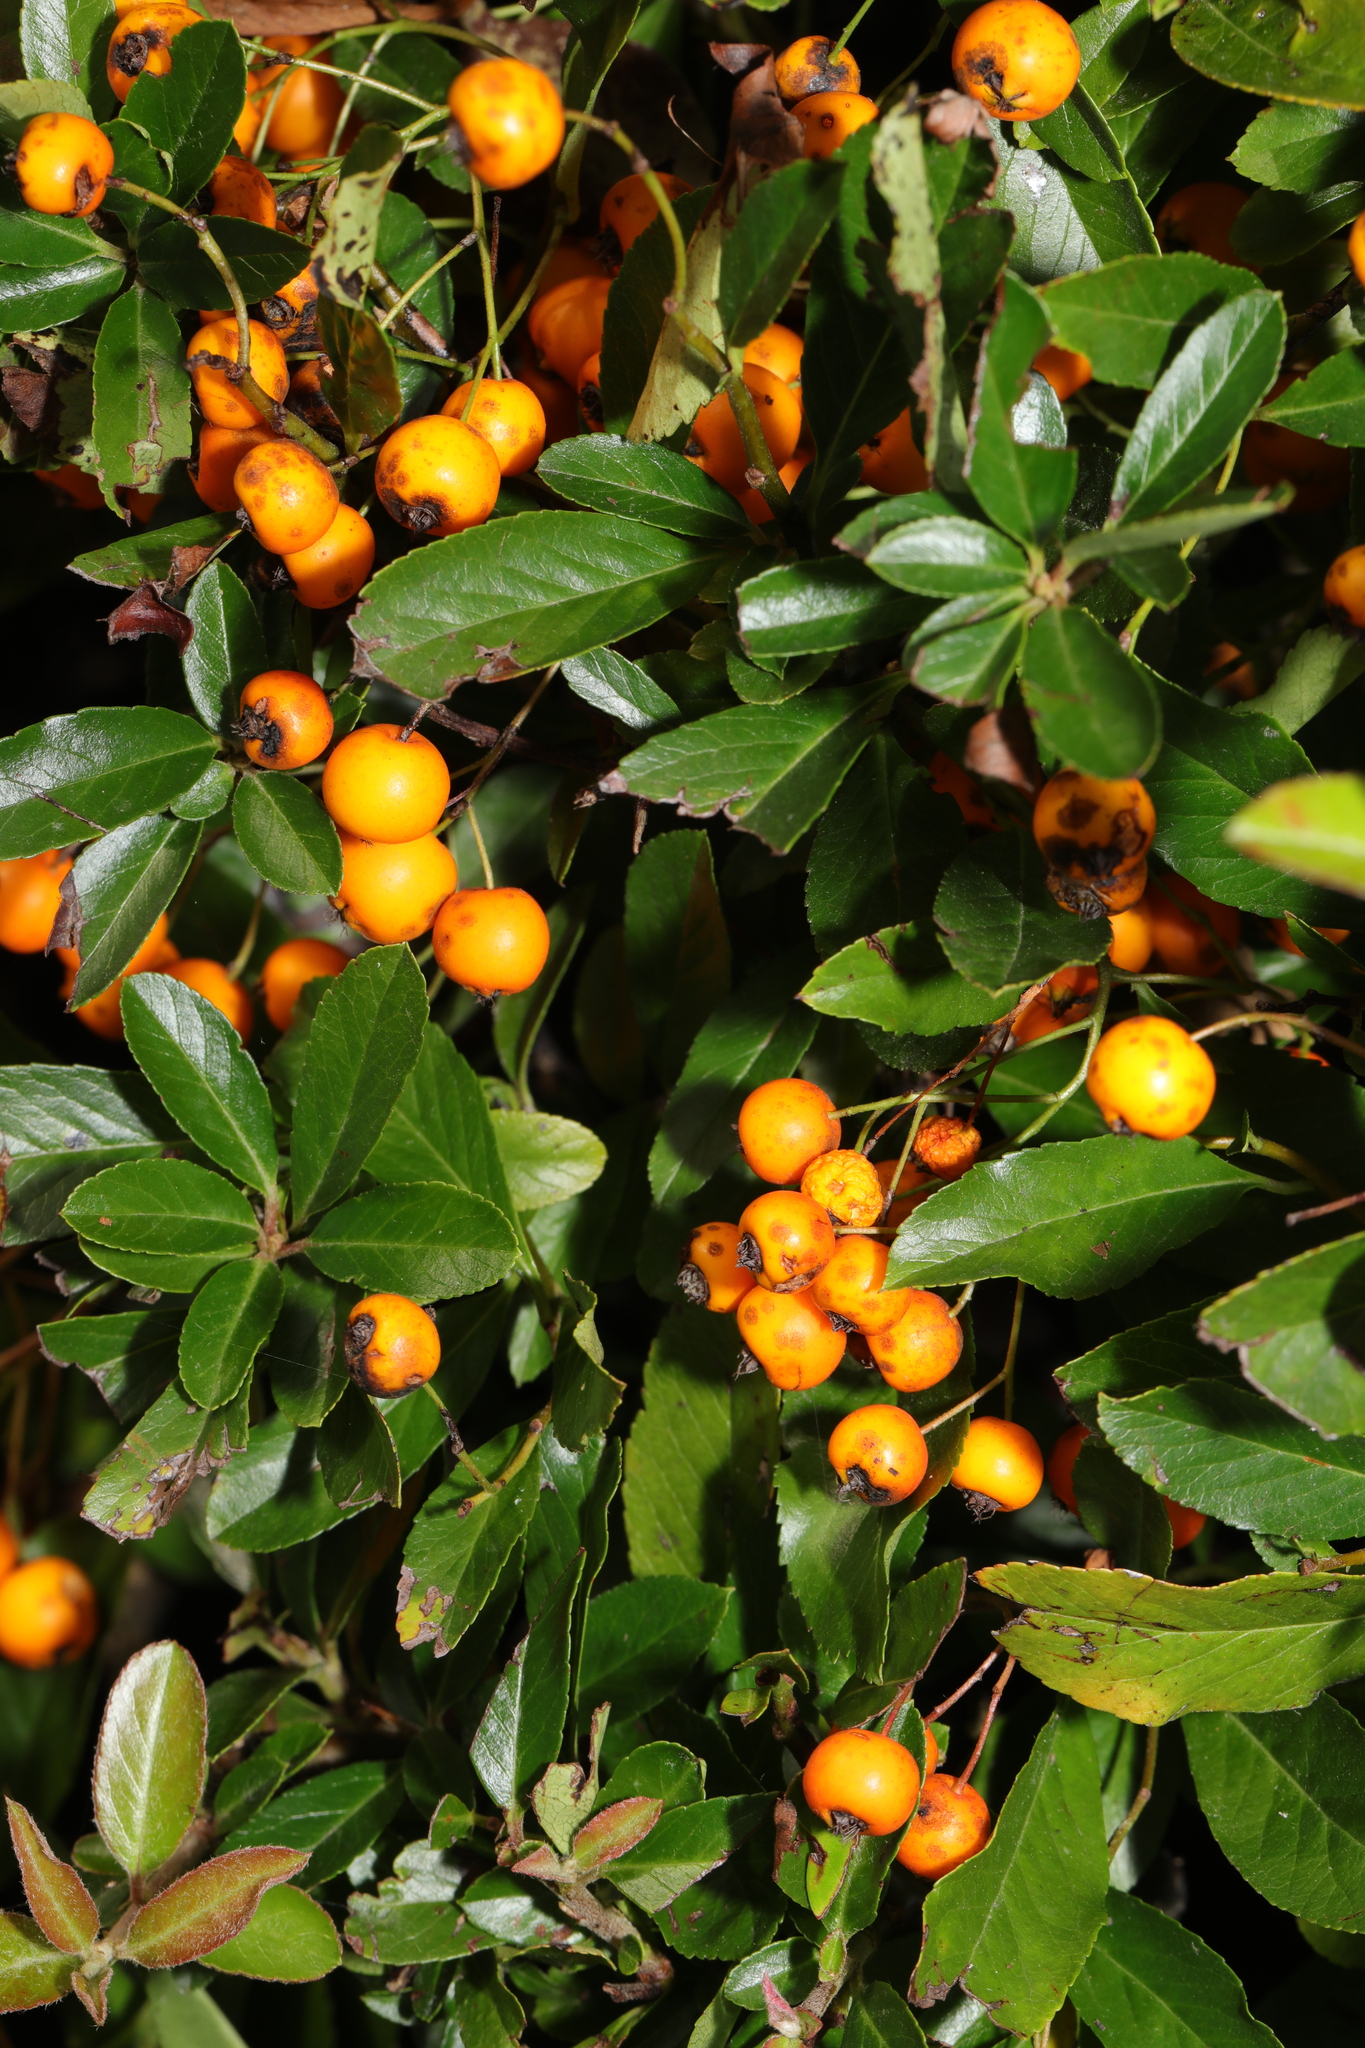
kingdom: Plantae
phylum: Tracheophyta
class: Magnoliopsida
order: Rosales
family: Rosaceae
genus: Pyracantha
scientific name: Pyracantha coccinea
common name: Firethorn
